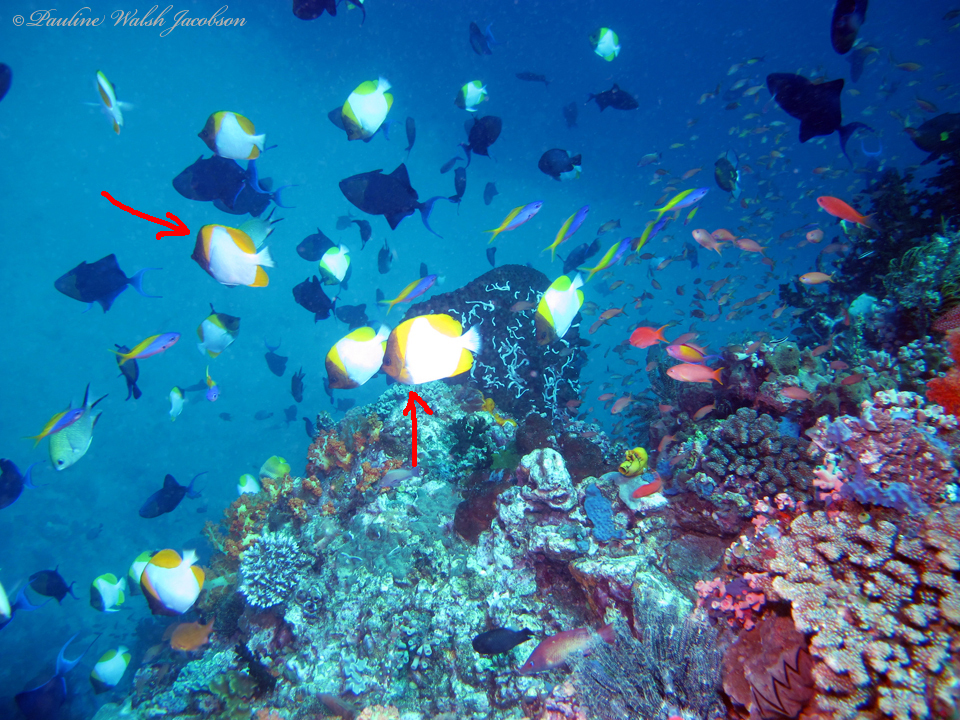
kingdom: Animalia
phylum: Chordata
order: Perciformes
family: Chaetodontidae
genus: Hemitaurichthys
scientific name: Hemitaurichthys polylepis
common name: Brushytoothed butterflyfish
